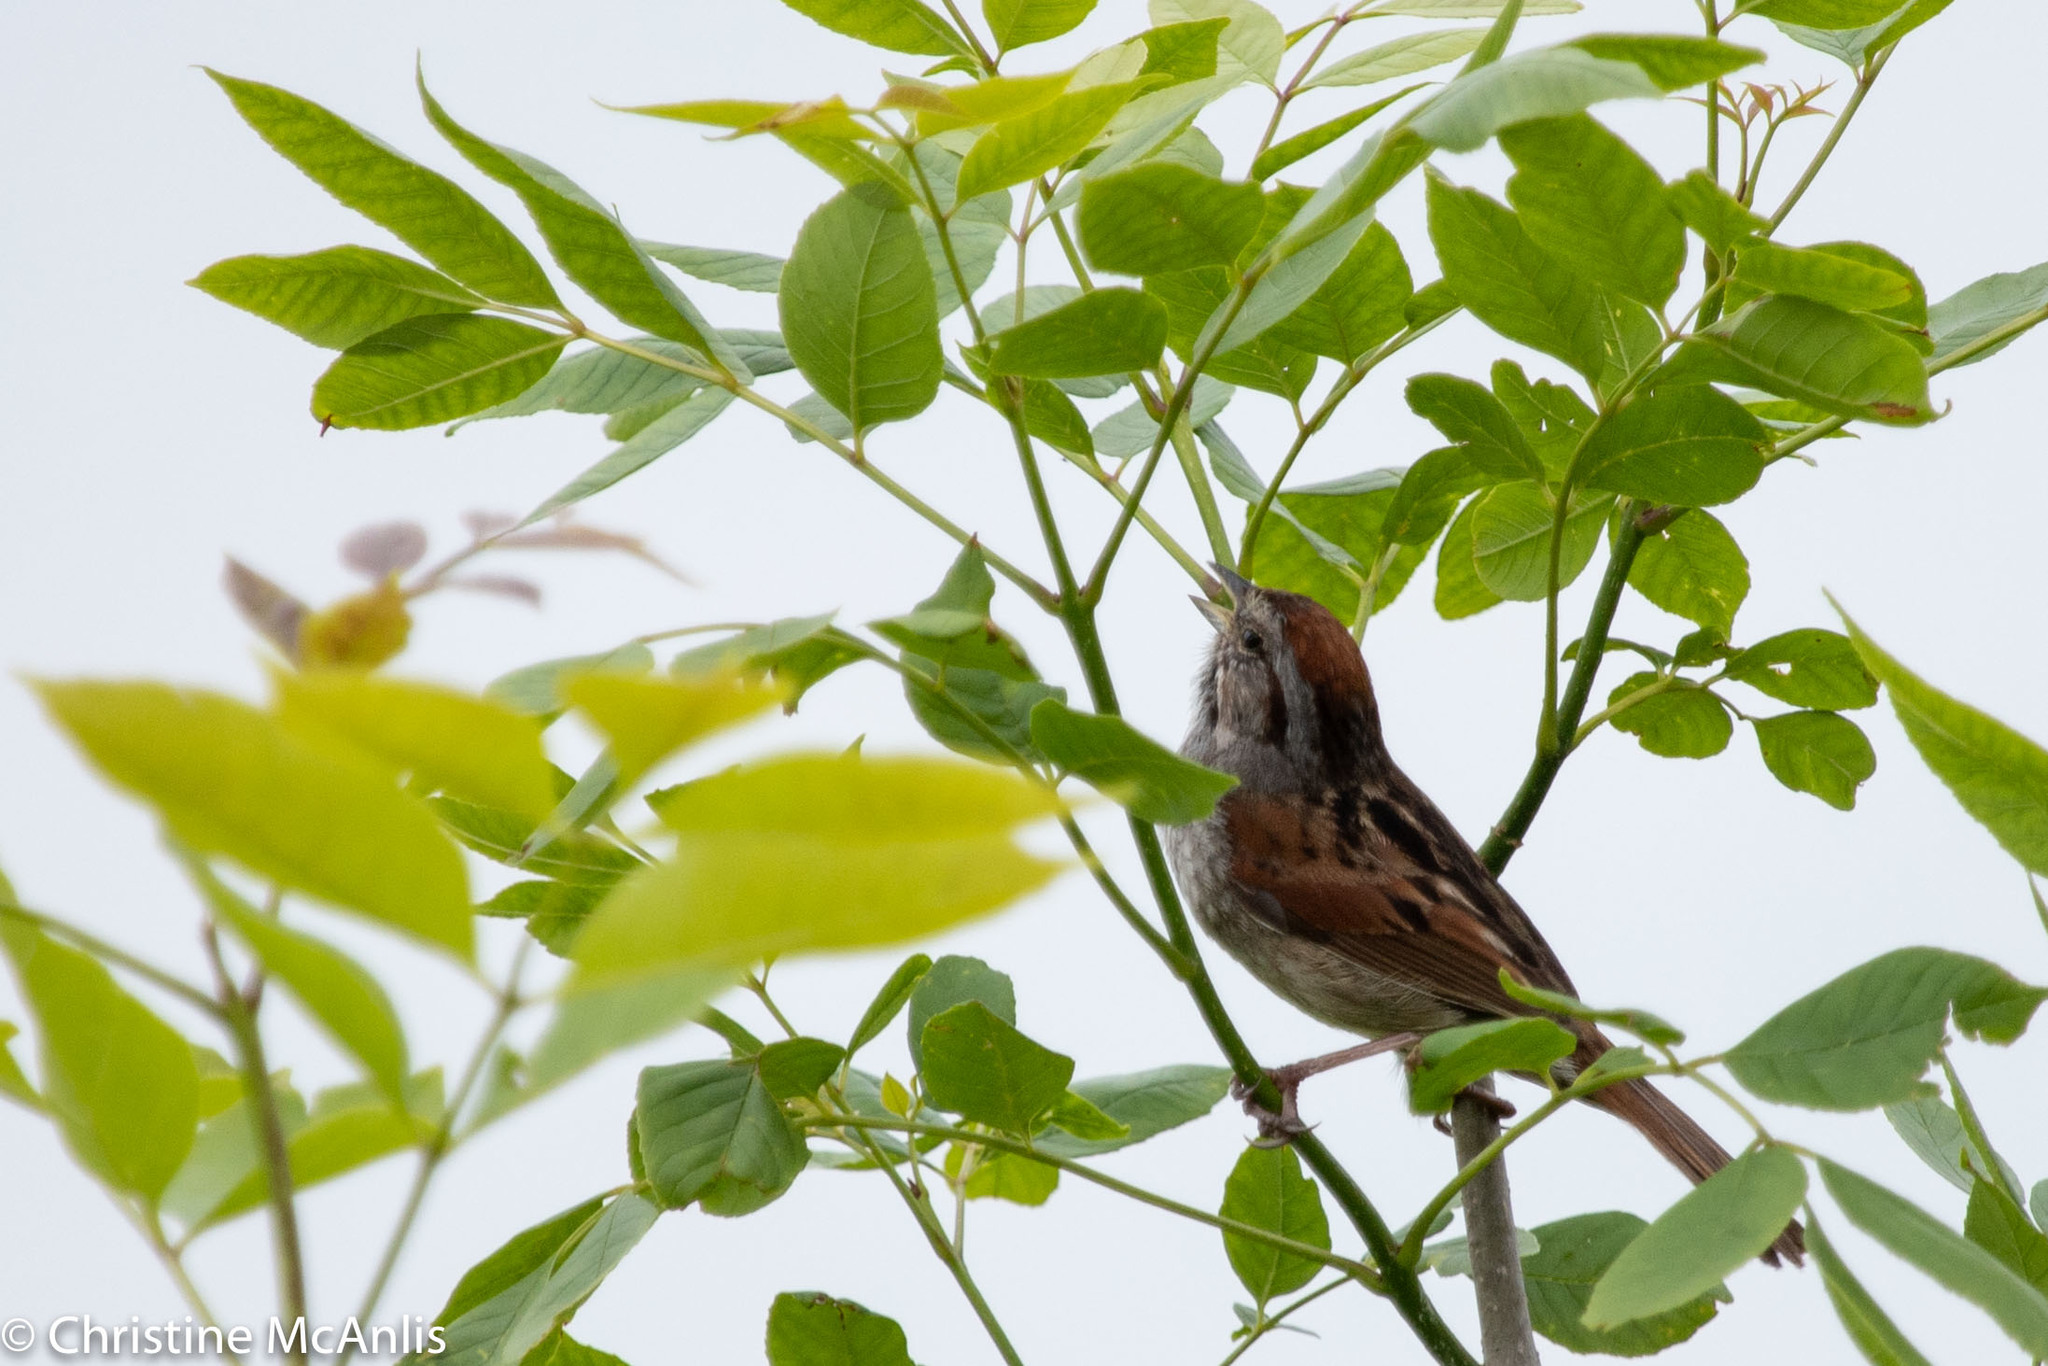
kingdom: Animalia
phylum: Chordata
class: Aves
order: Passeriformes
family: Passerellidae
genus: Melospiza
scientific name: Melospiza georgiana
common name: Swamp sparrow
